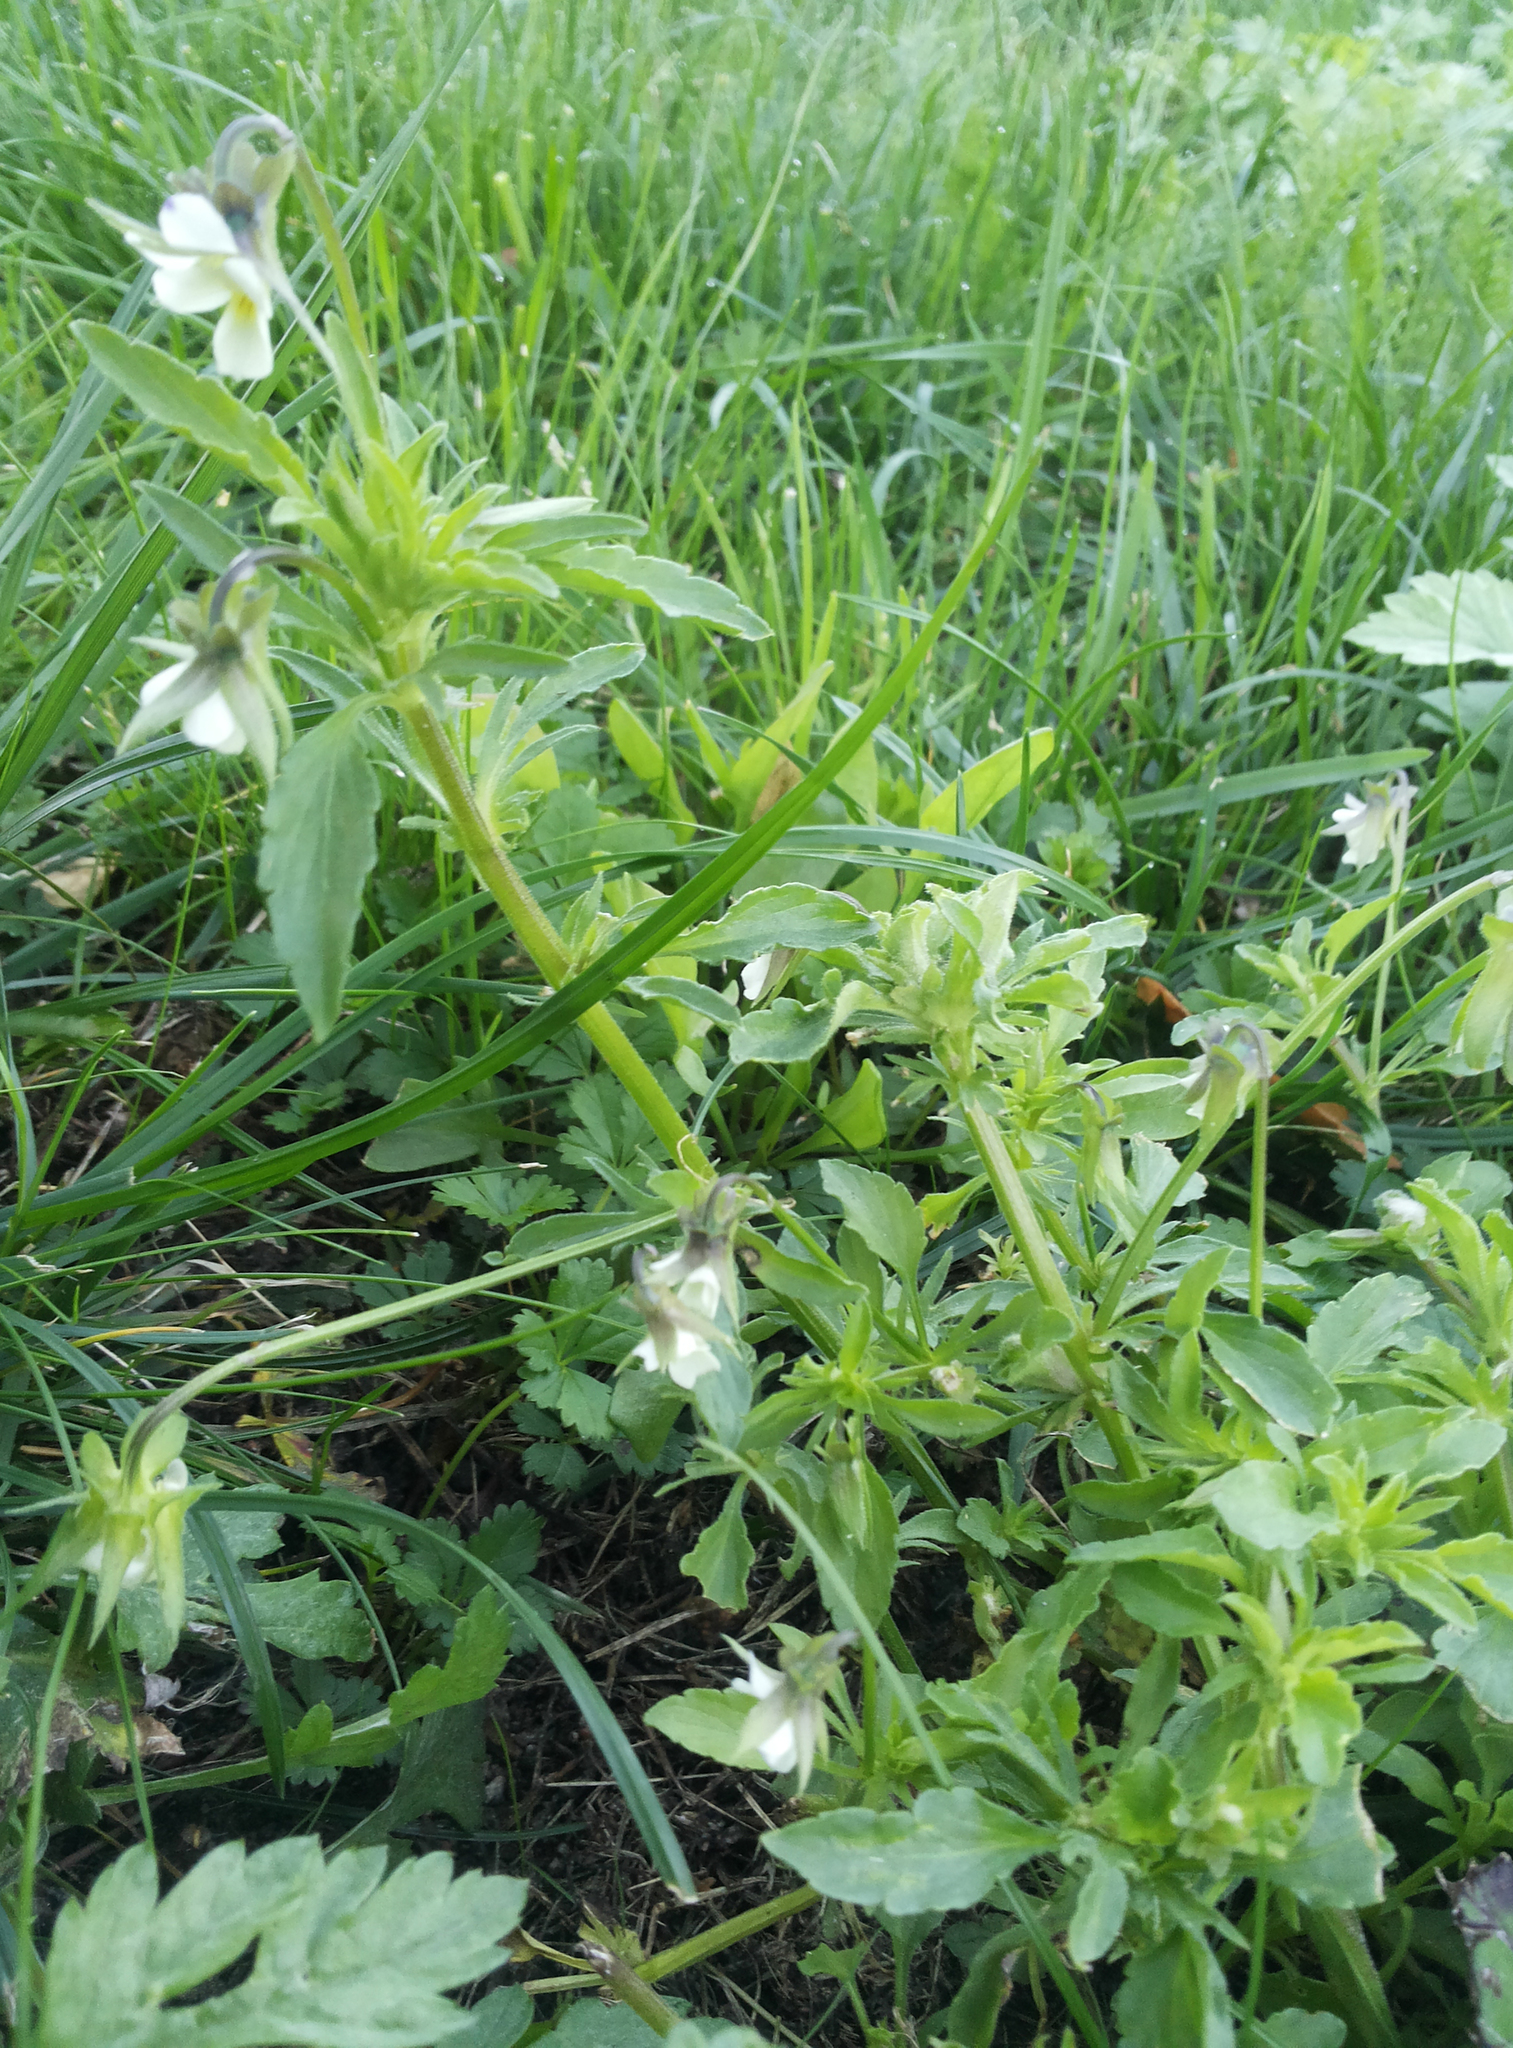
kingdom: Plantae
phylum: Tracheophyta
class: Magnoliopsida
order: Malpighiales
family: Violaceae
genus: Viola
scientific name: Viola arvensis
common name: Field pansy
